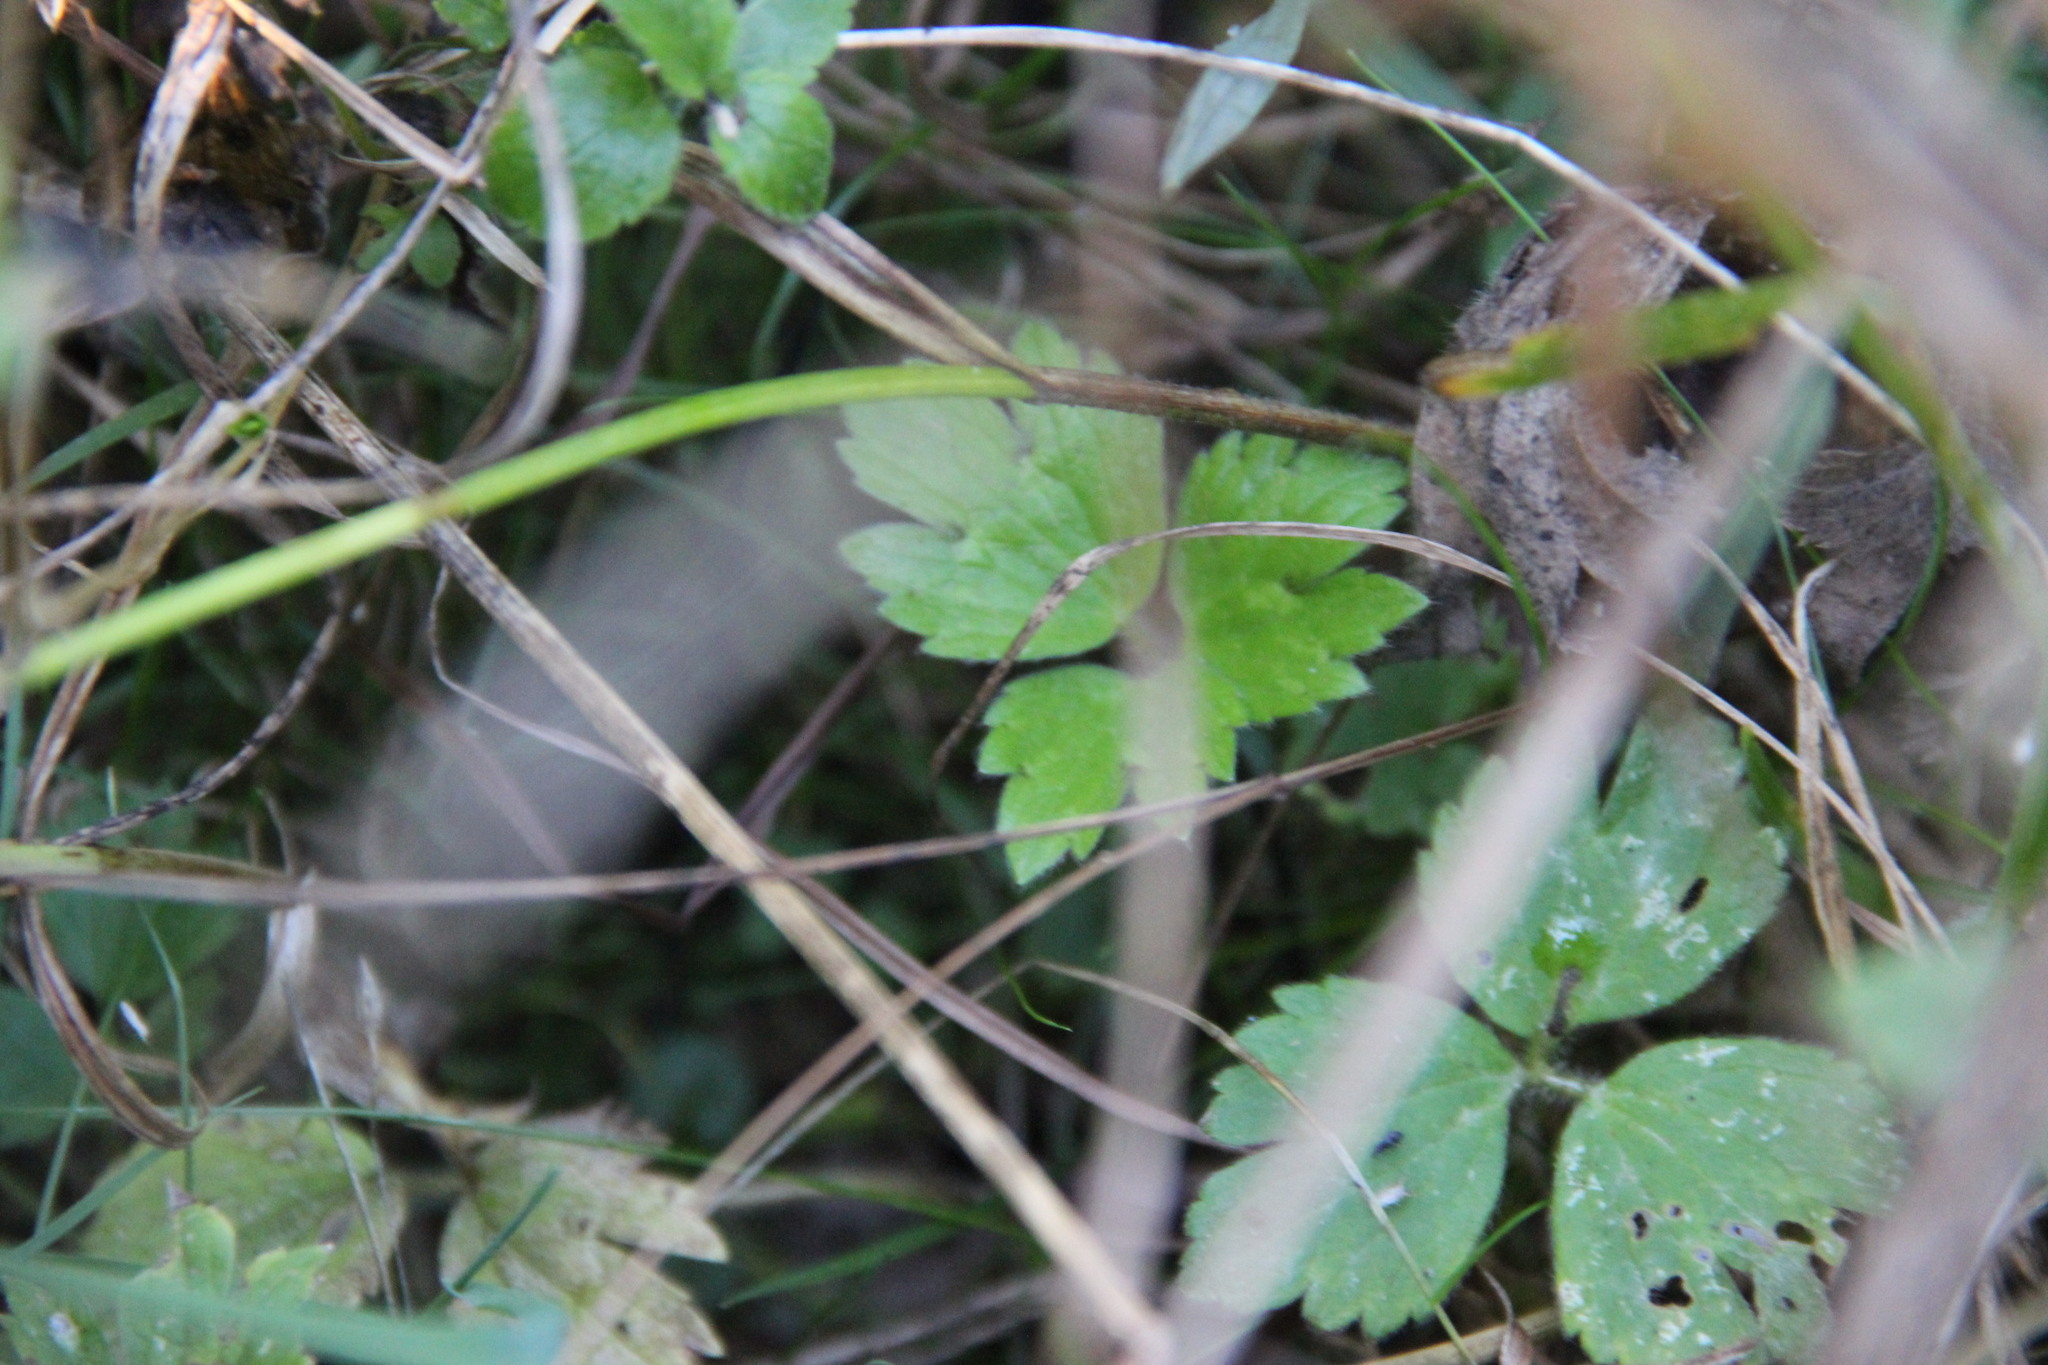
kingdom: Plantae
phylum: Tracheophyta
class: Magnoliopsida
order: Ranunculales
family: Ranunculaceae
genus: Ranunculus
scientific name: Ranunculus repens
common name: Creeping buttercup
